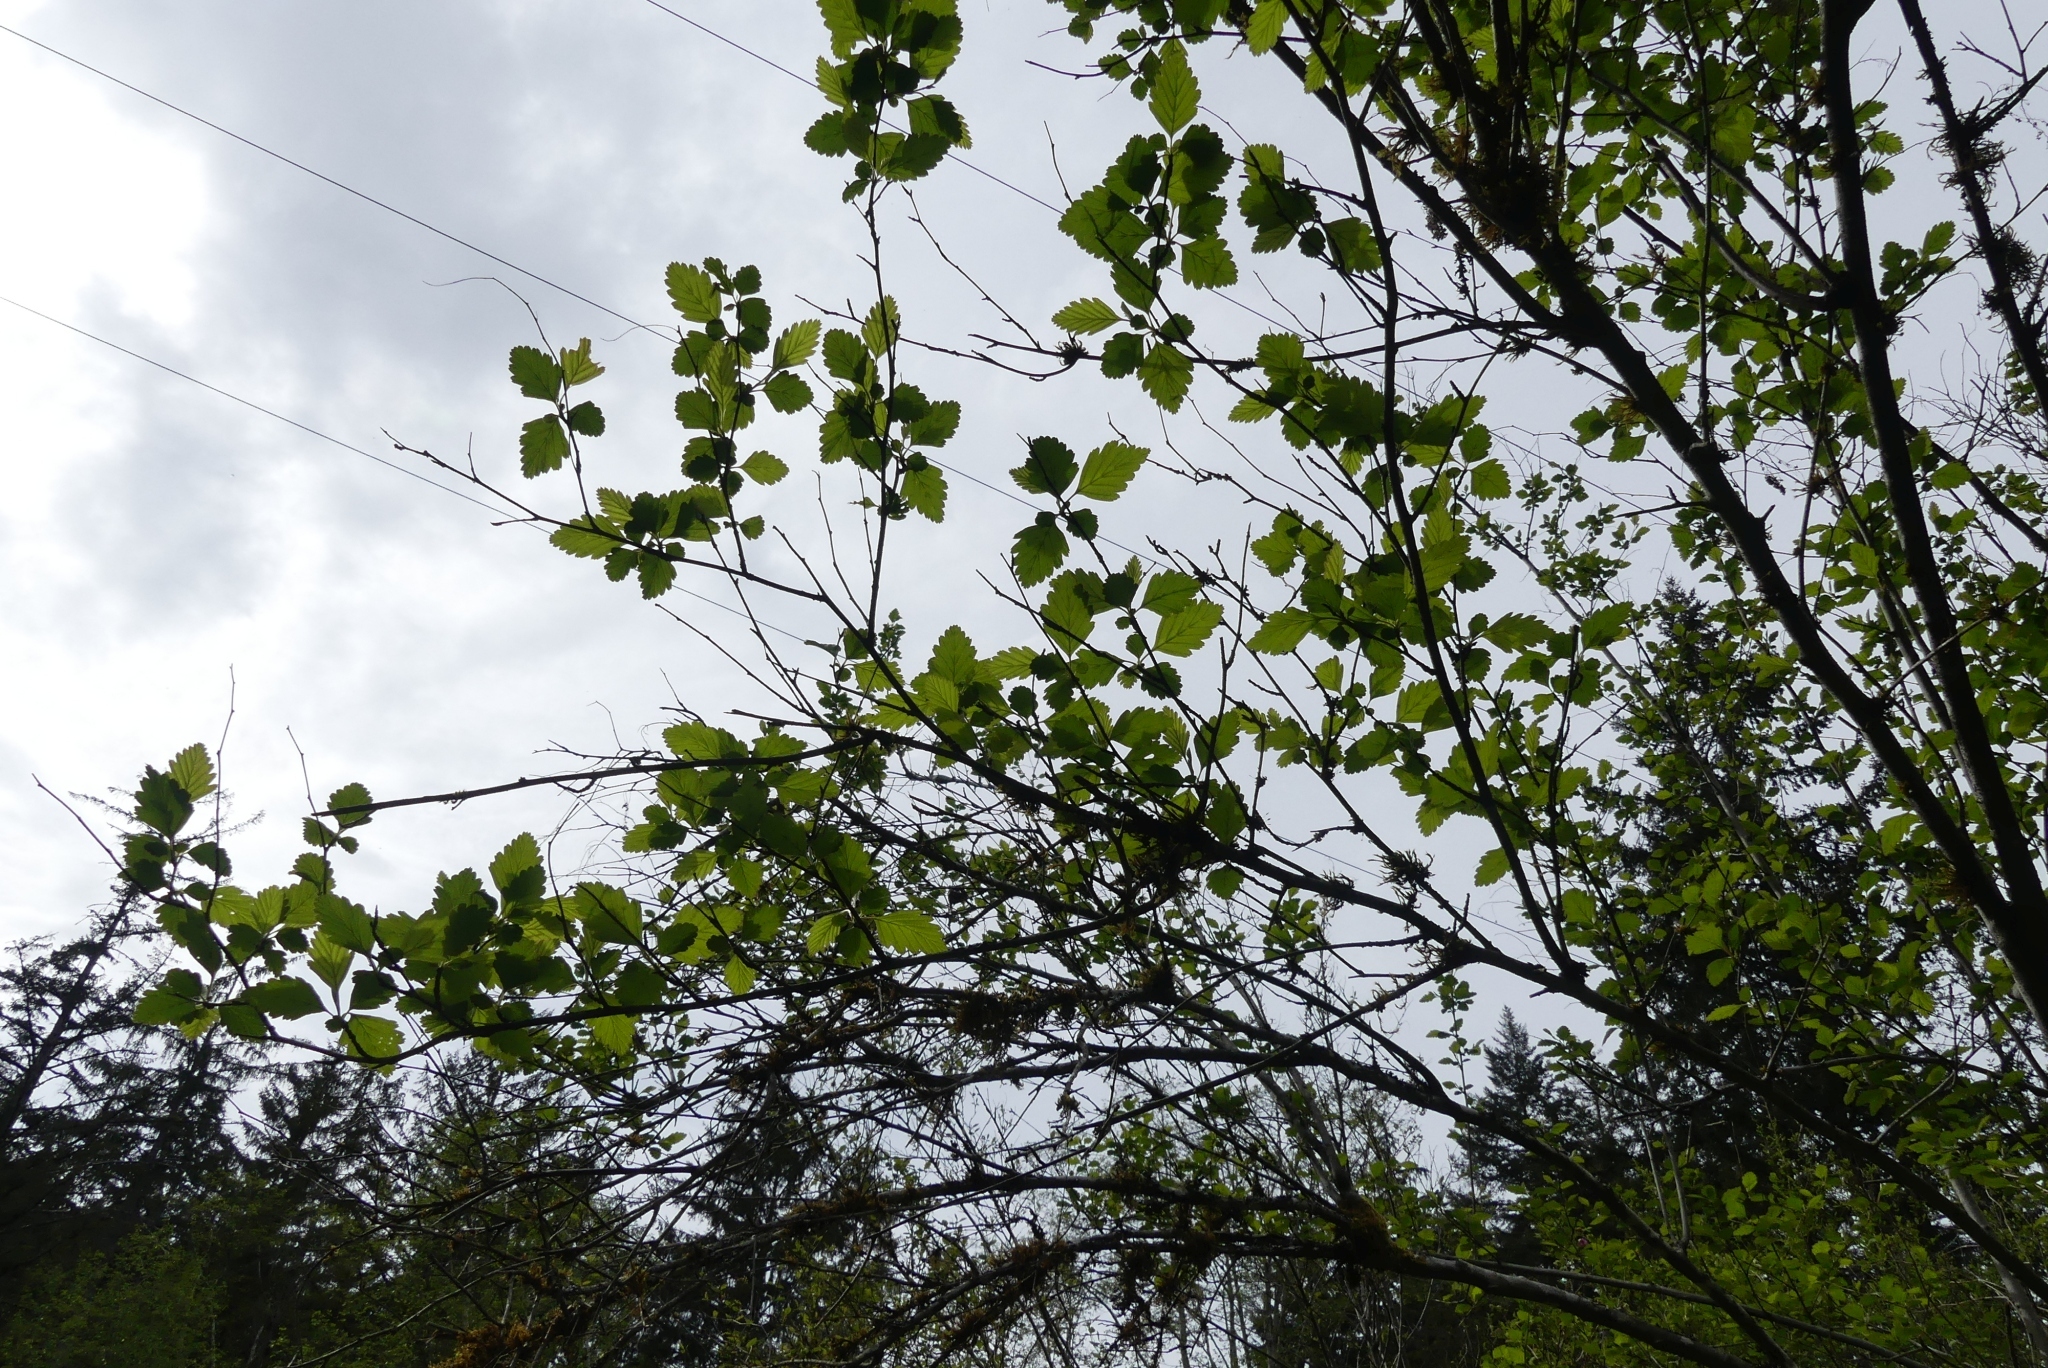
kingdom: Plantae
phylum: Tracheophyta
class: Magnoliopsida
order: Rosales
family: Rosaceae
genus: Holodiscus
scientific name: Holodiscus discolor
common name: Oceanspray
